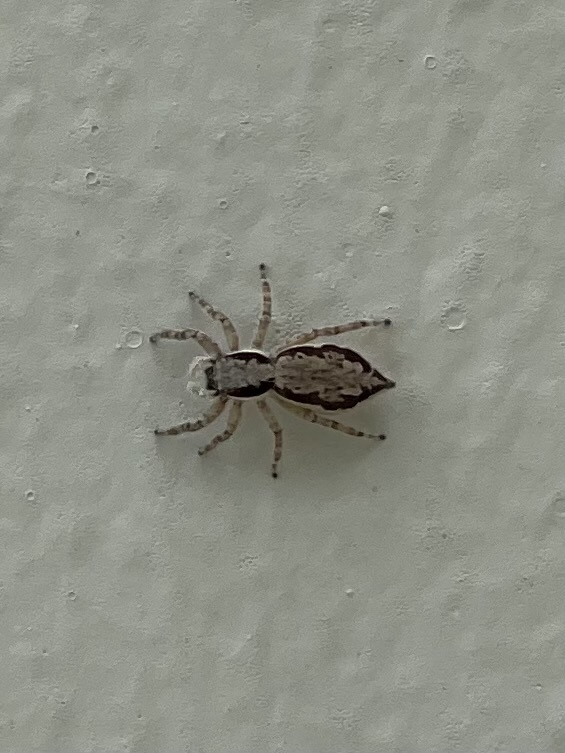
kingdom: Animalia
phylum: Arthropoda
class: Arachnida
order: Araneae
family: Salticidae
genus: Menemerus
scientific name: Menemerus bivittatus
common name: Gray wall jumper
